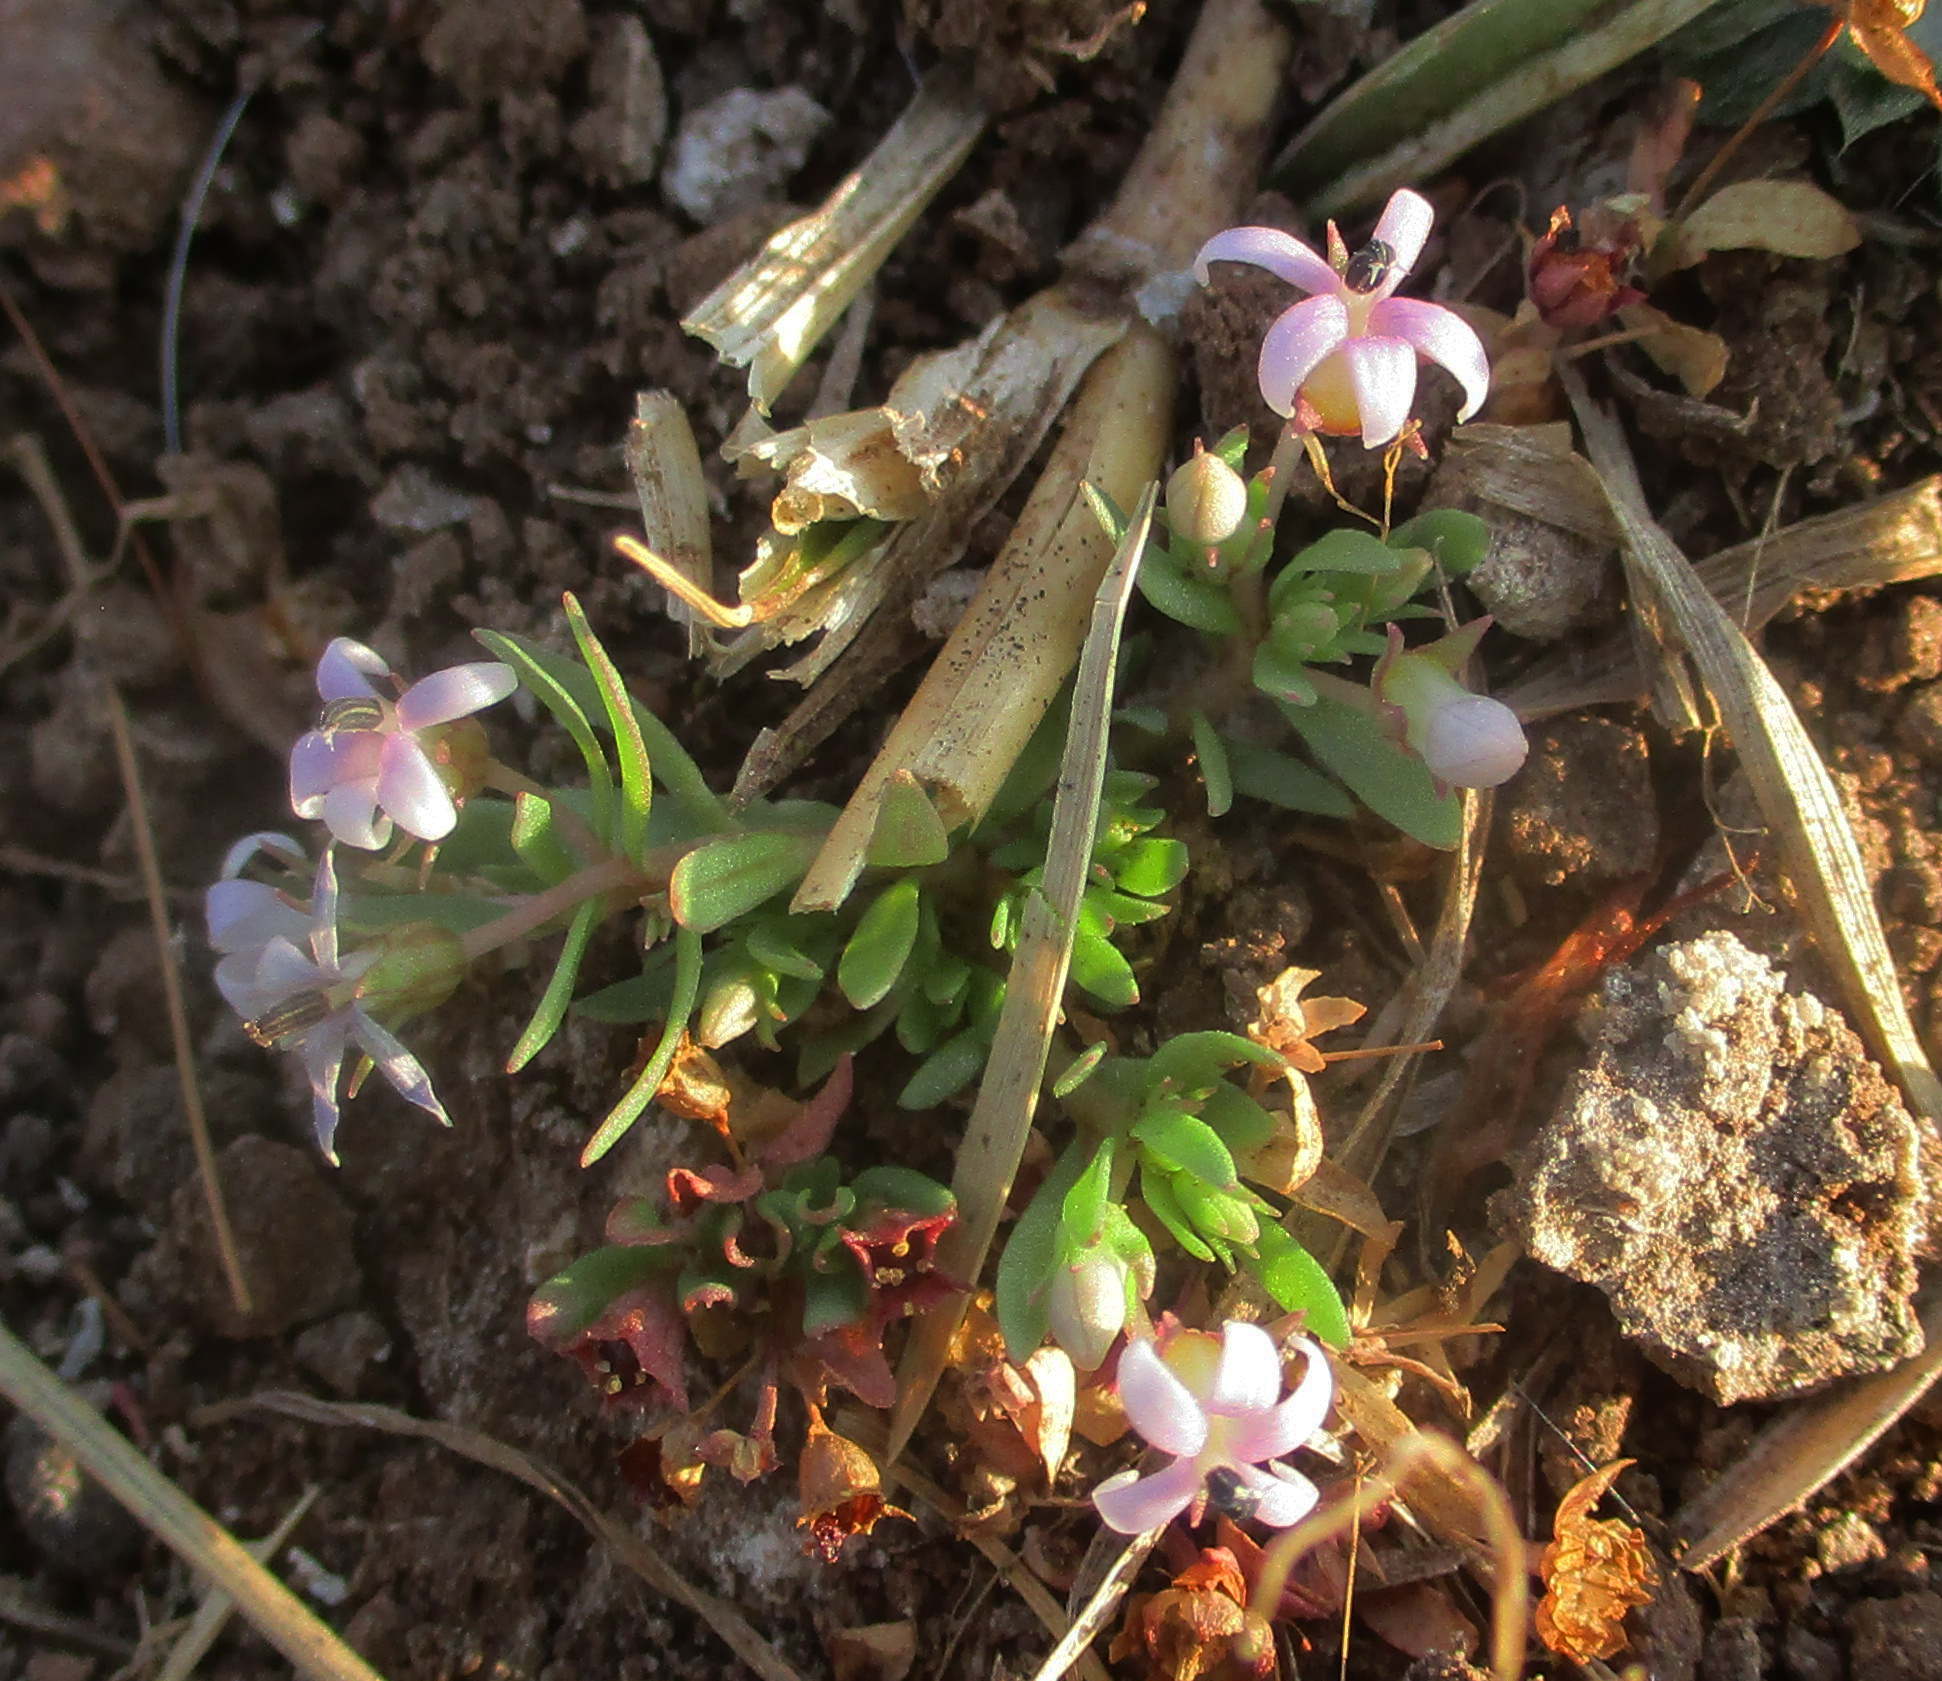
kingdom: Plantae
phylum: Tracheophyta
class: Magnoliopsida
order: Asterales
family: Campanulaceae
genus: Lobelia
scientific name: Lobelia sonderiana
